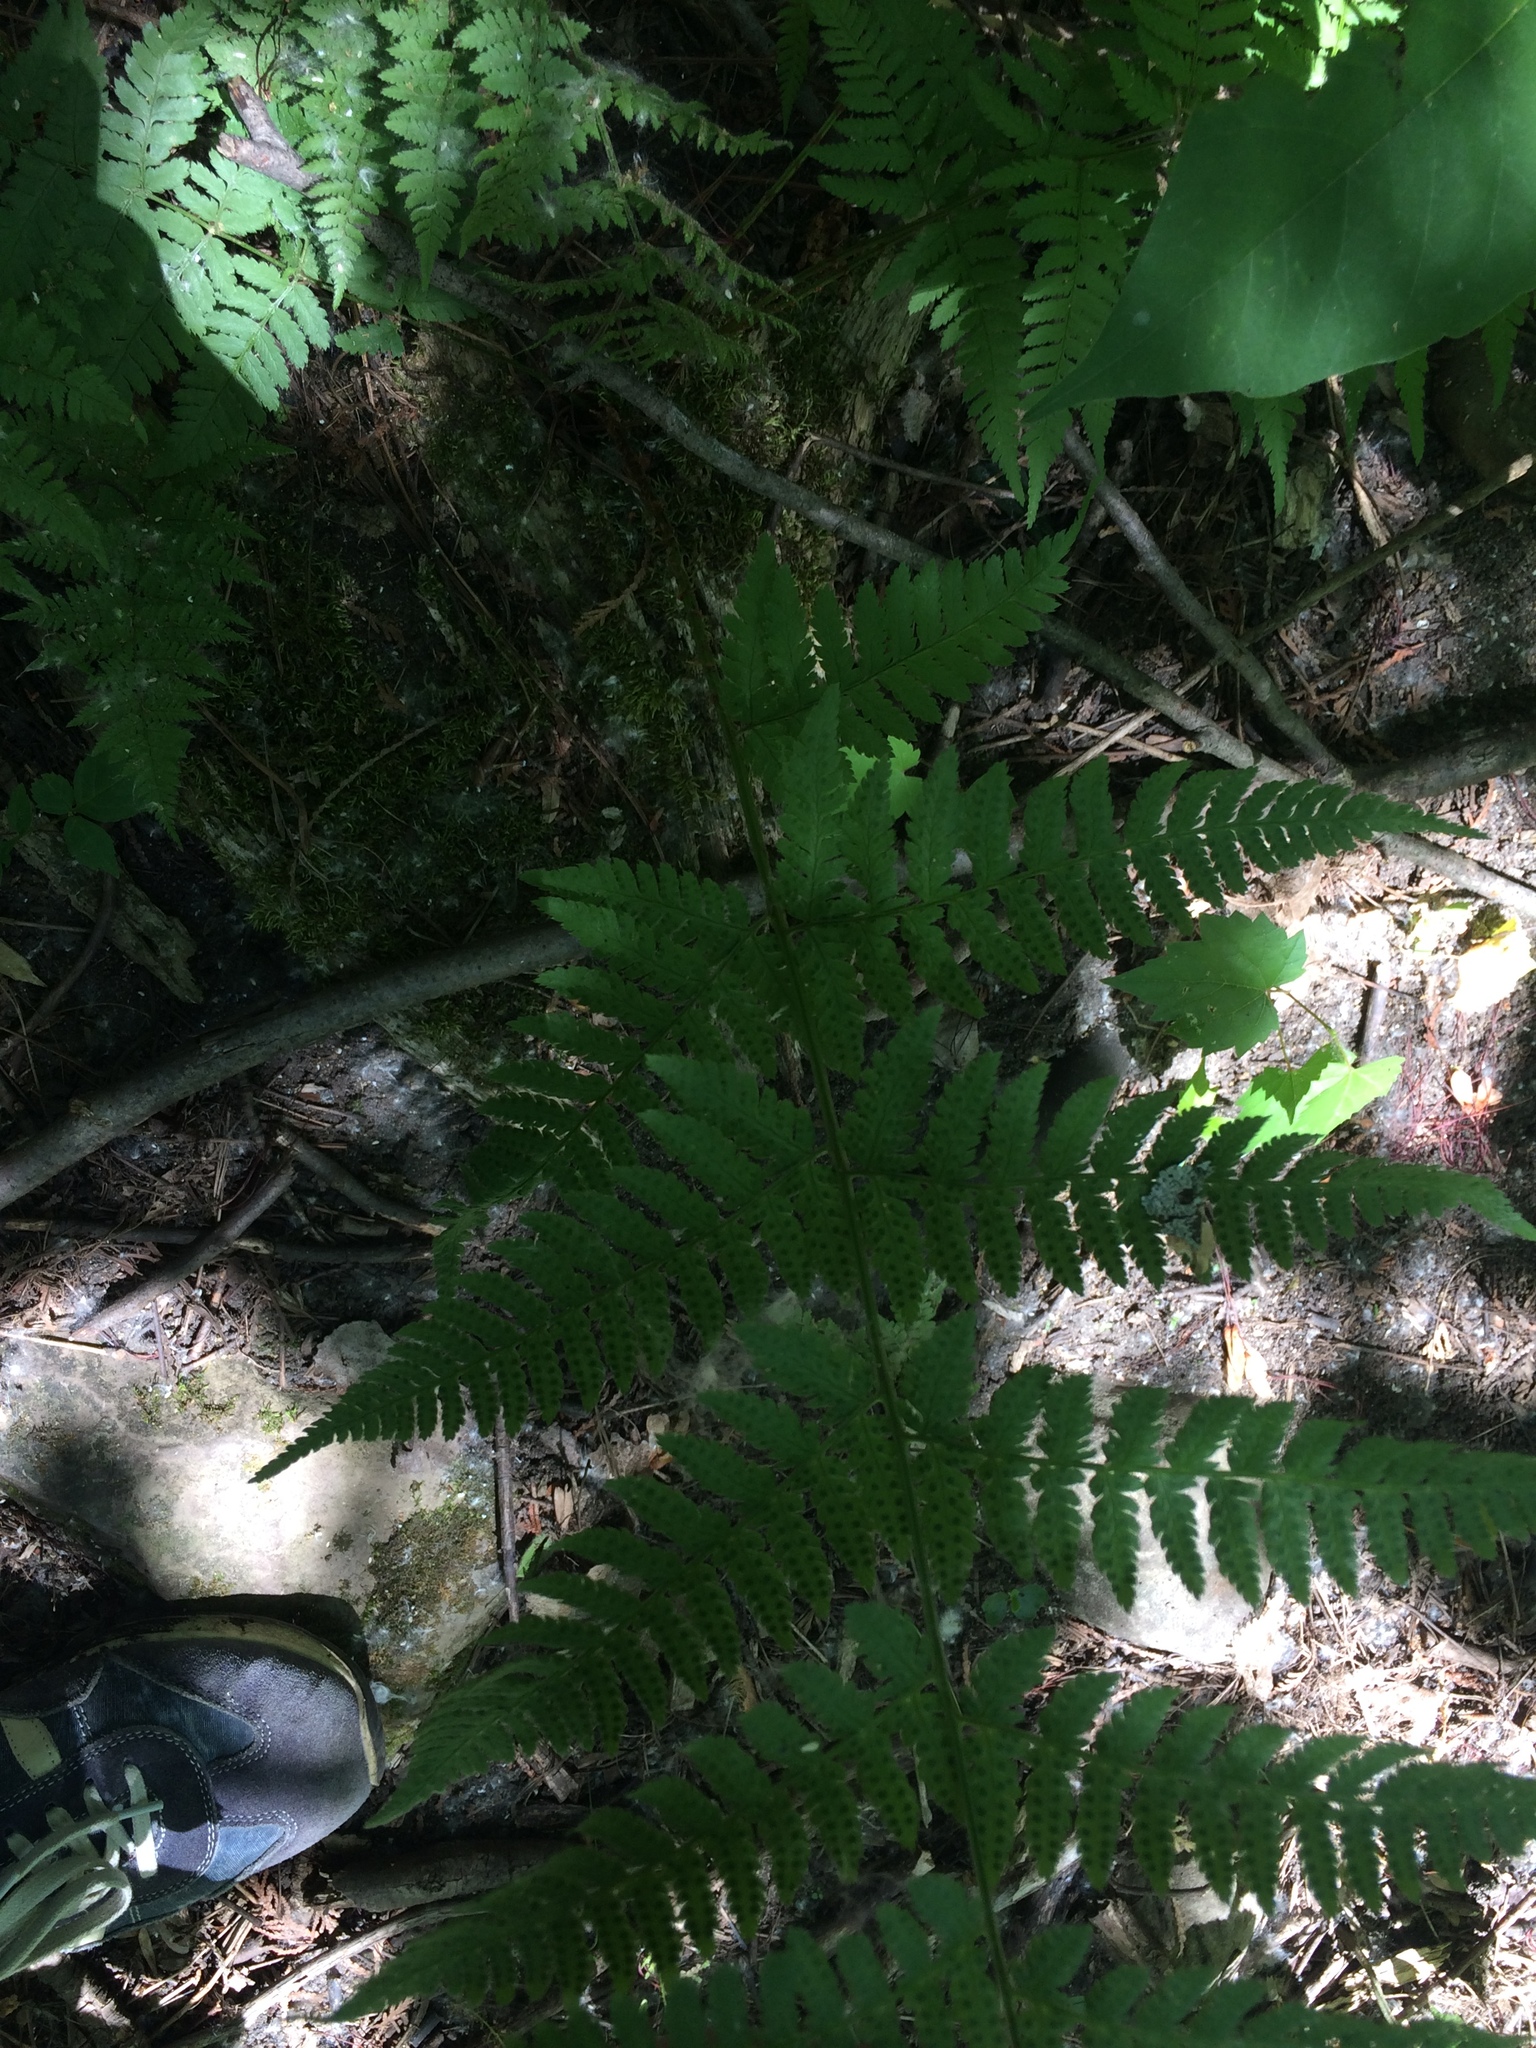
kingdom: Plantae
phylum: Tracheophyta
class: Polypodiopsida
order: Polypodiales
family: Dryopteridaceae
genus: Dryopteris
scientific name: Dryopteris carthusiana
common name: Narrow buckler-fern
